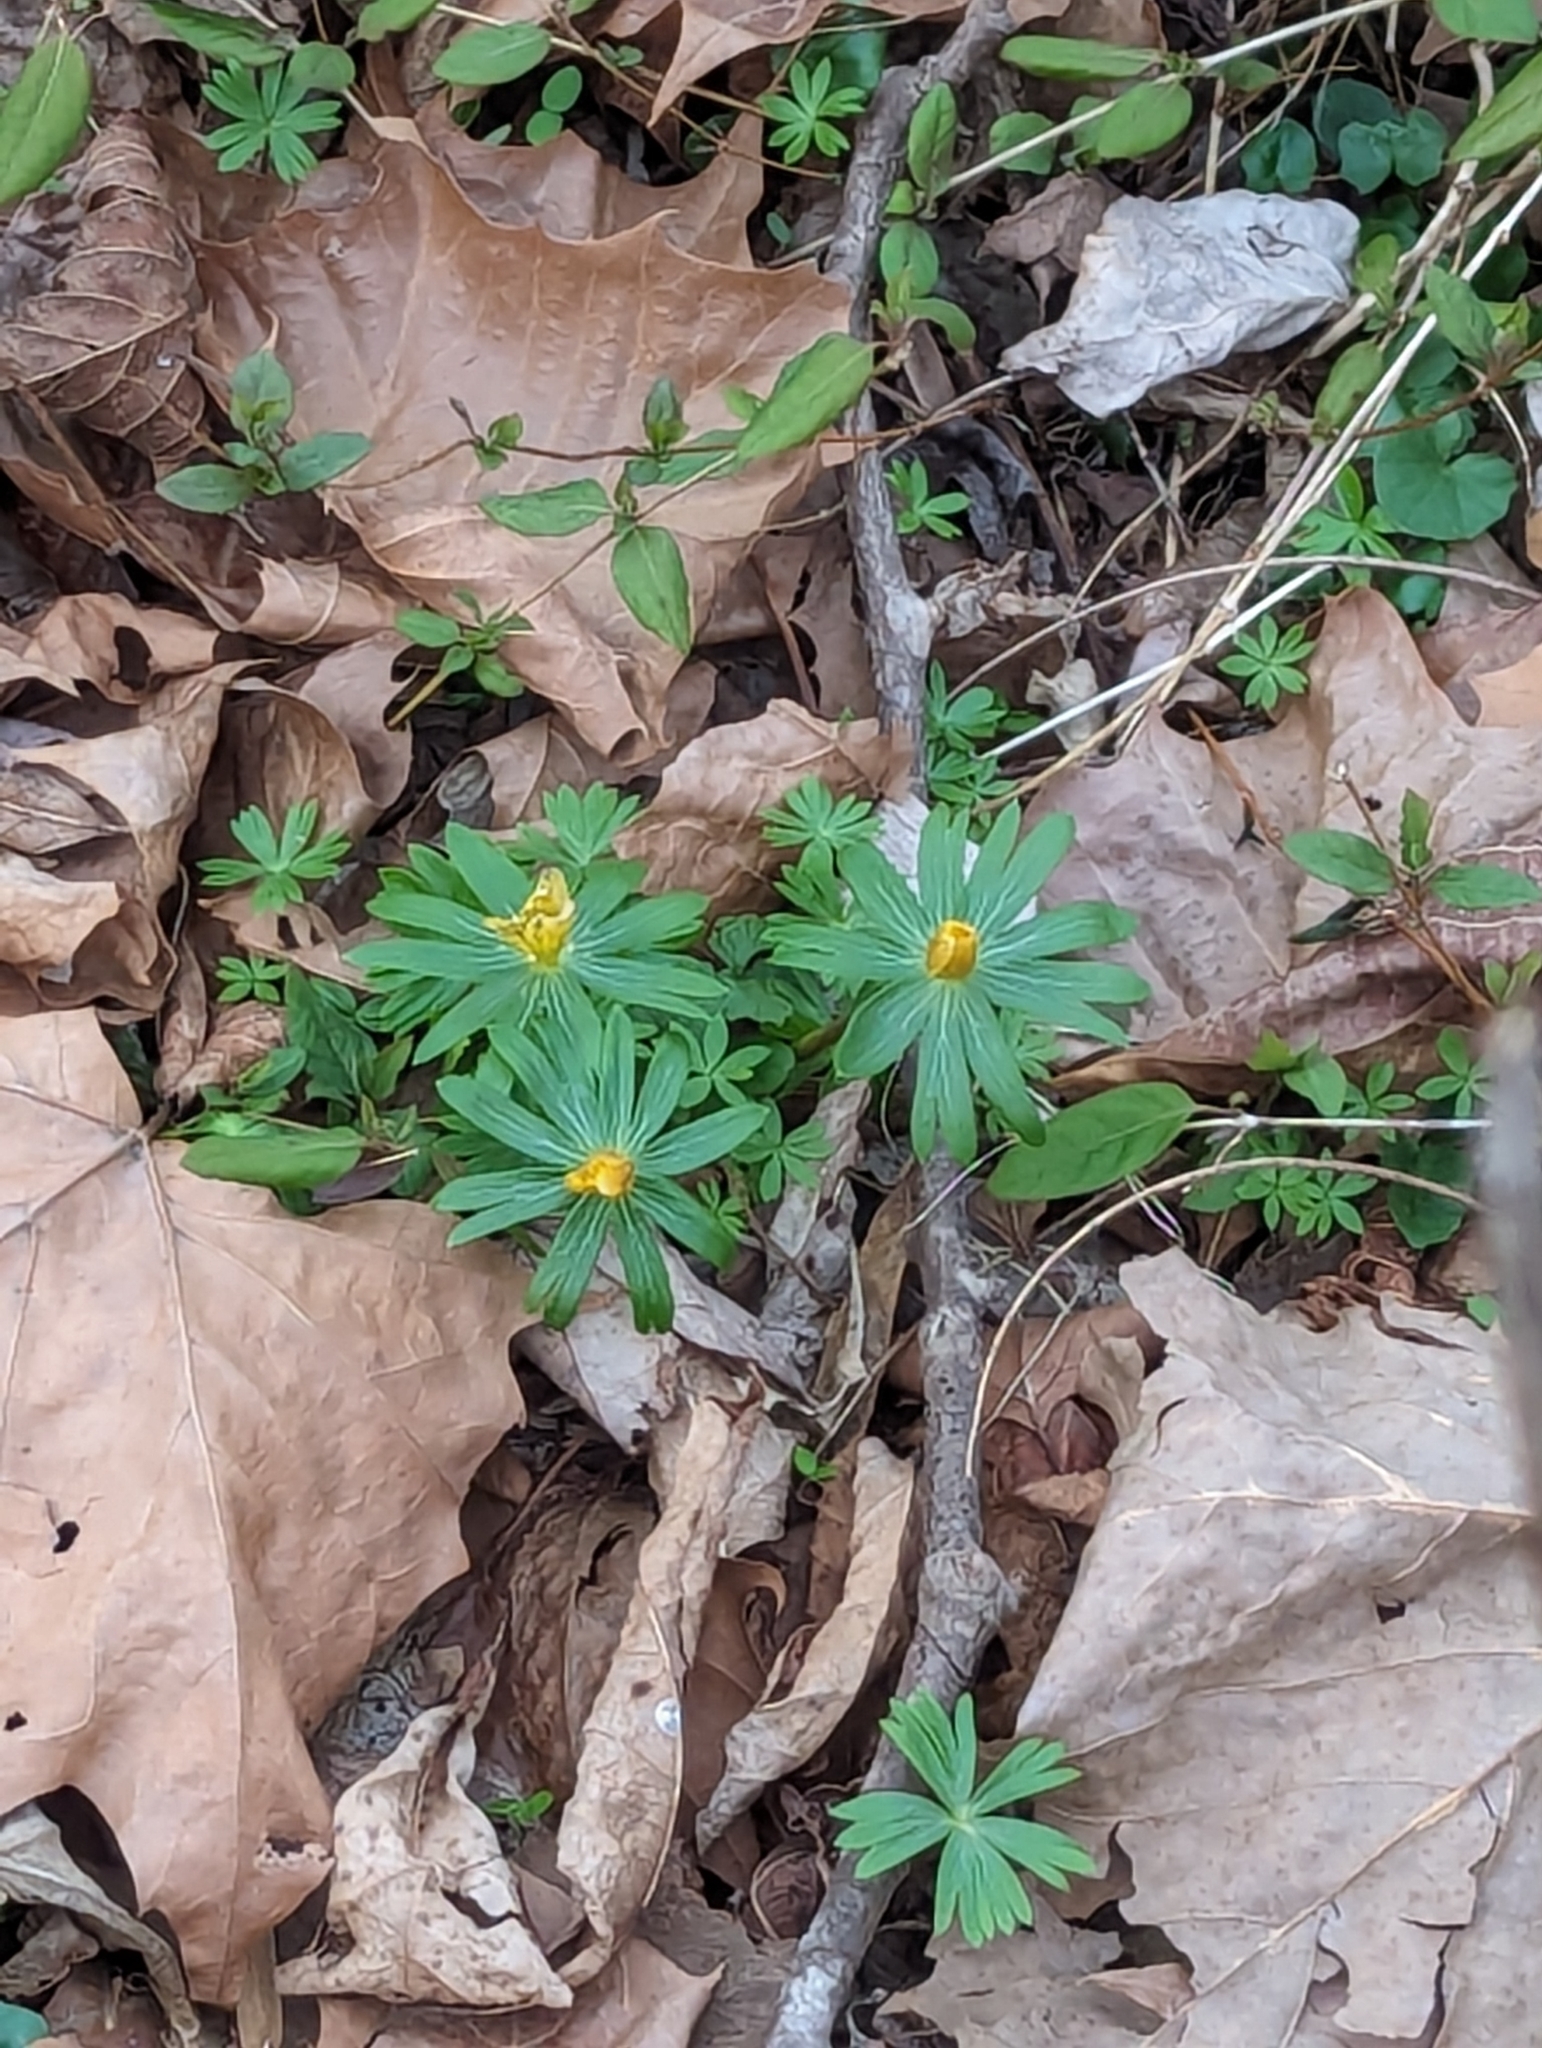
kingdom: Plantae
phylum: Tracheophyta
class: Magnoliopsida
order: Ranunculales
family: Ranunculaceae
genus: Eranthis
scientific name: Eranthis hyemalis
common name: Winter aconite
